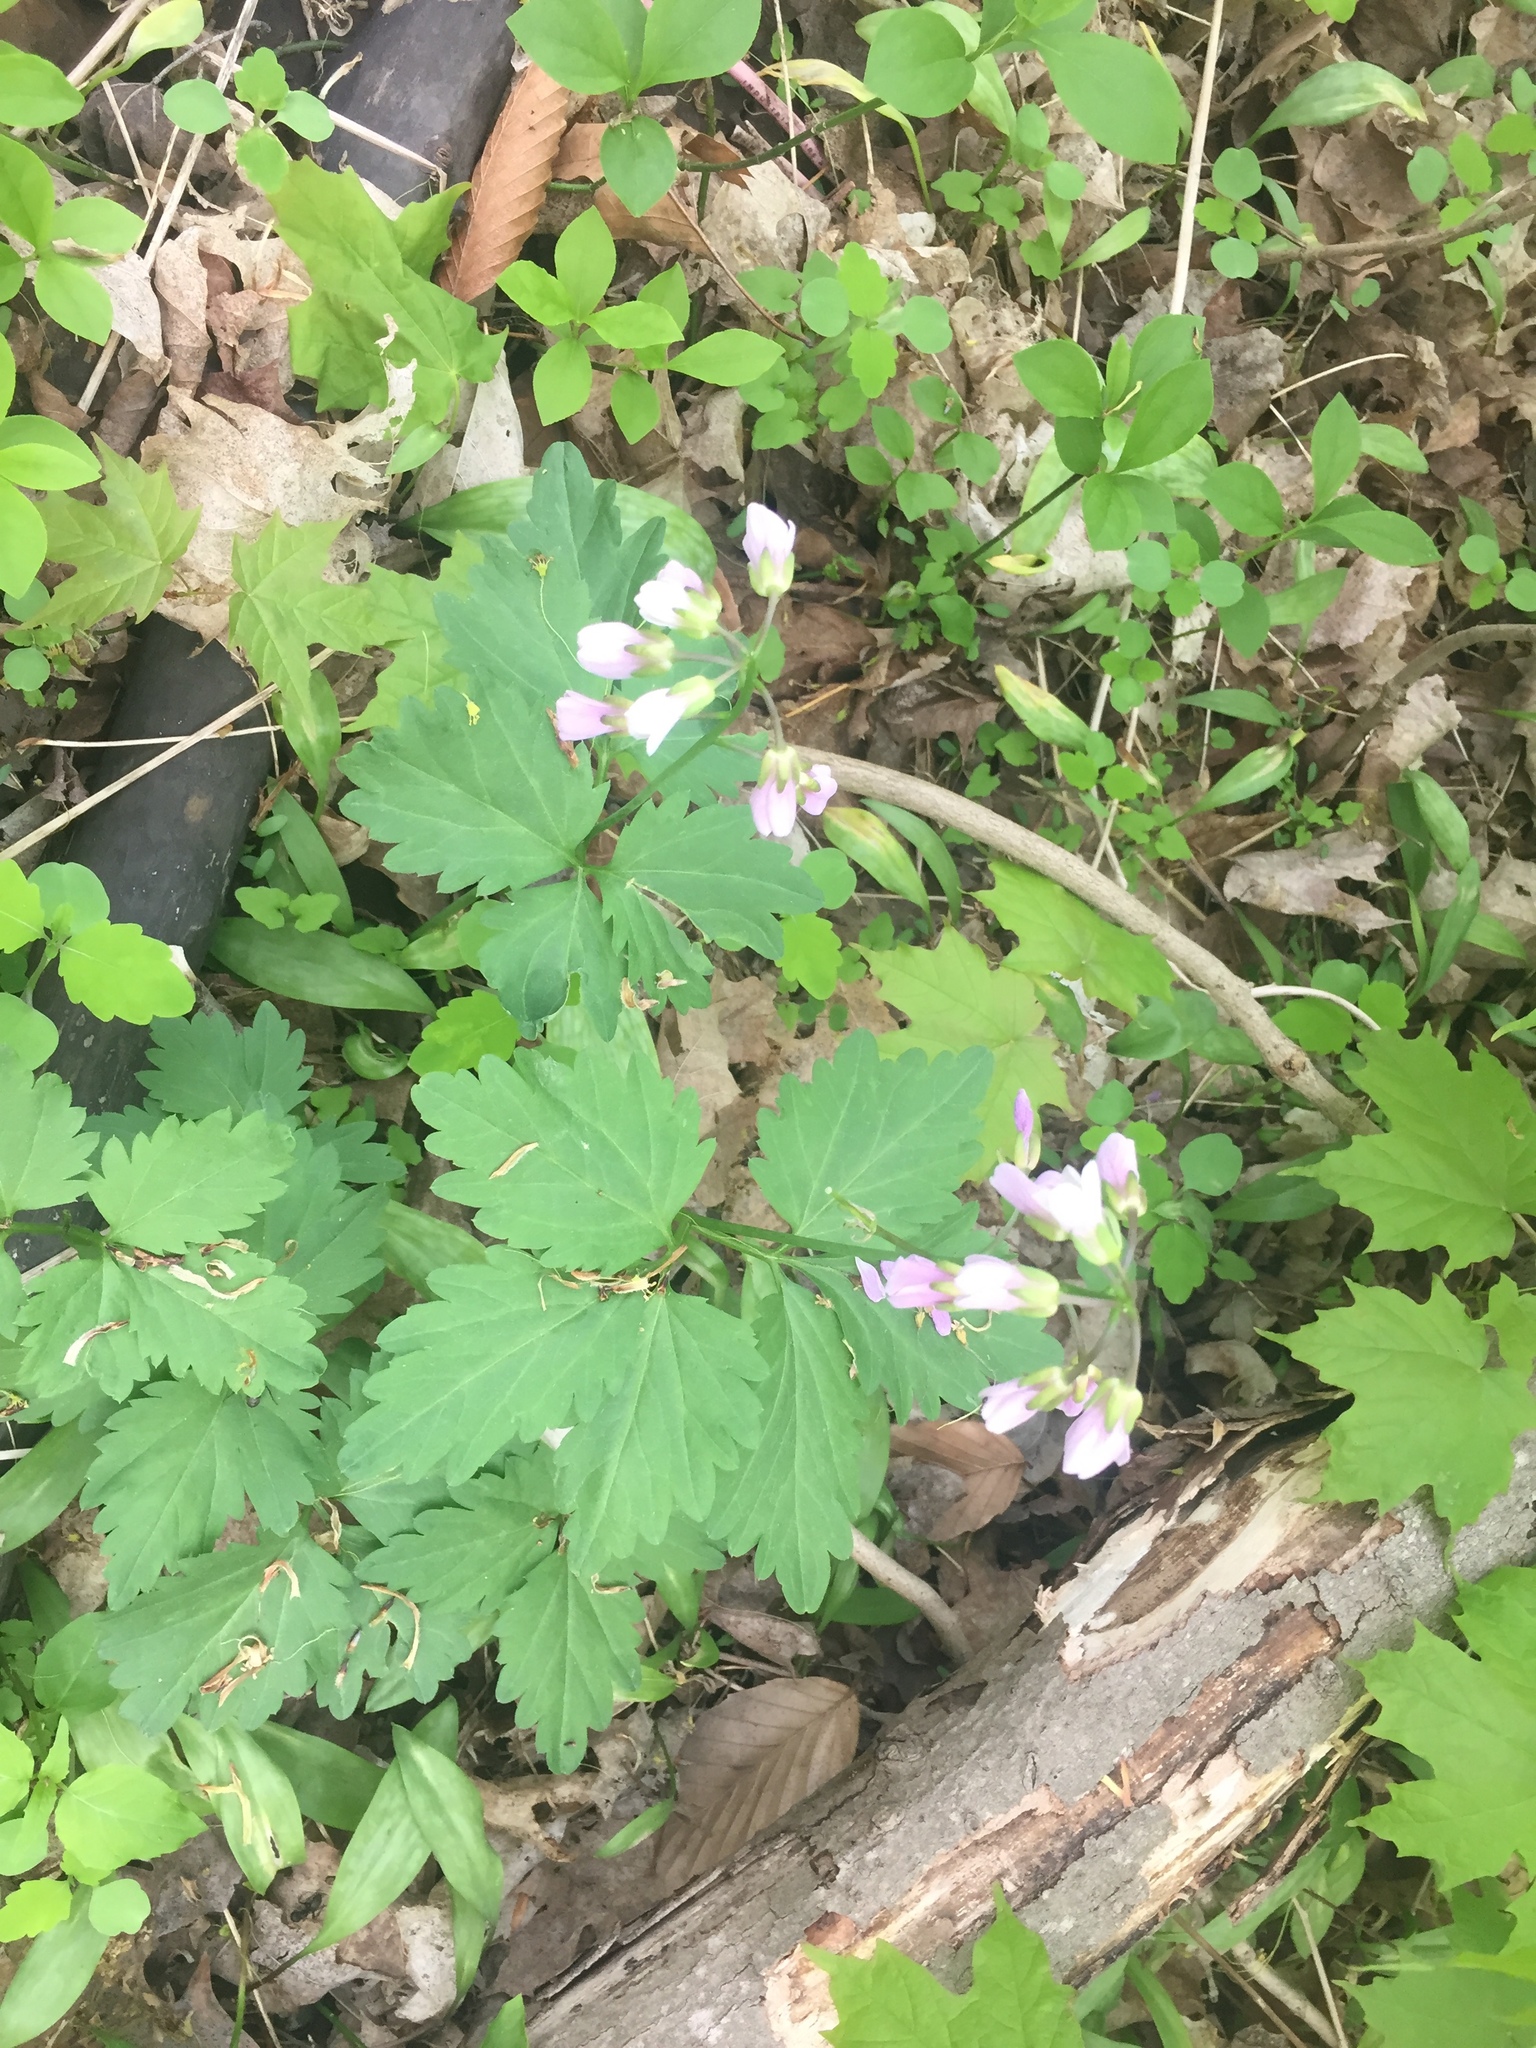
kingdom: Plantae
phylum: Tracheophyta
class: Magnoliopsida
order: Brassicales
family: Brassicaceae
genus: Cardamine
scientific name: Cardamine diphylla
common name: Broad-leaved toothwort
